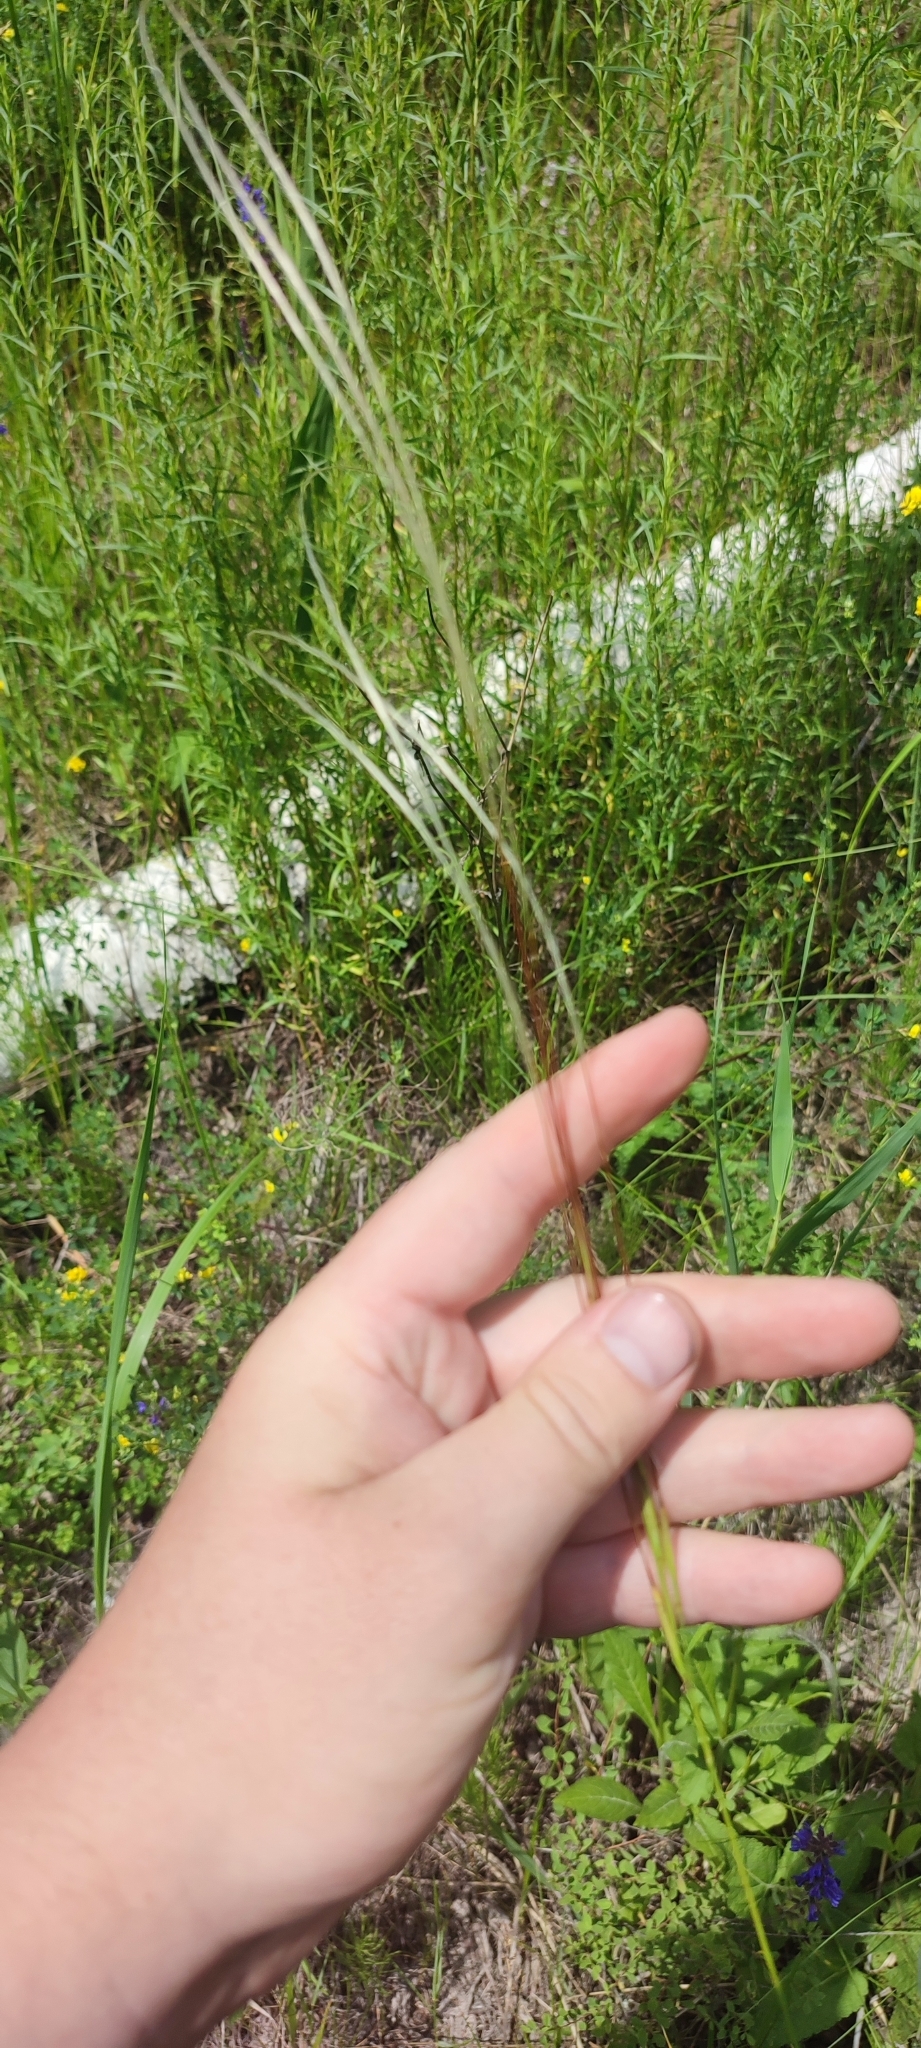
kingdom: Plantae
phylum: Tracheophyta
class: Liliopsida
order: Poales
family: Poaceae
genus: Stipa
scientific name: Stipa pennata
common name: European feather grass
